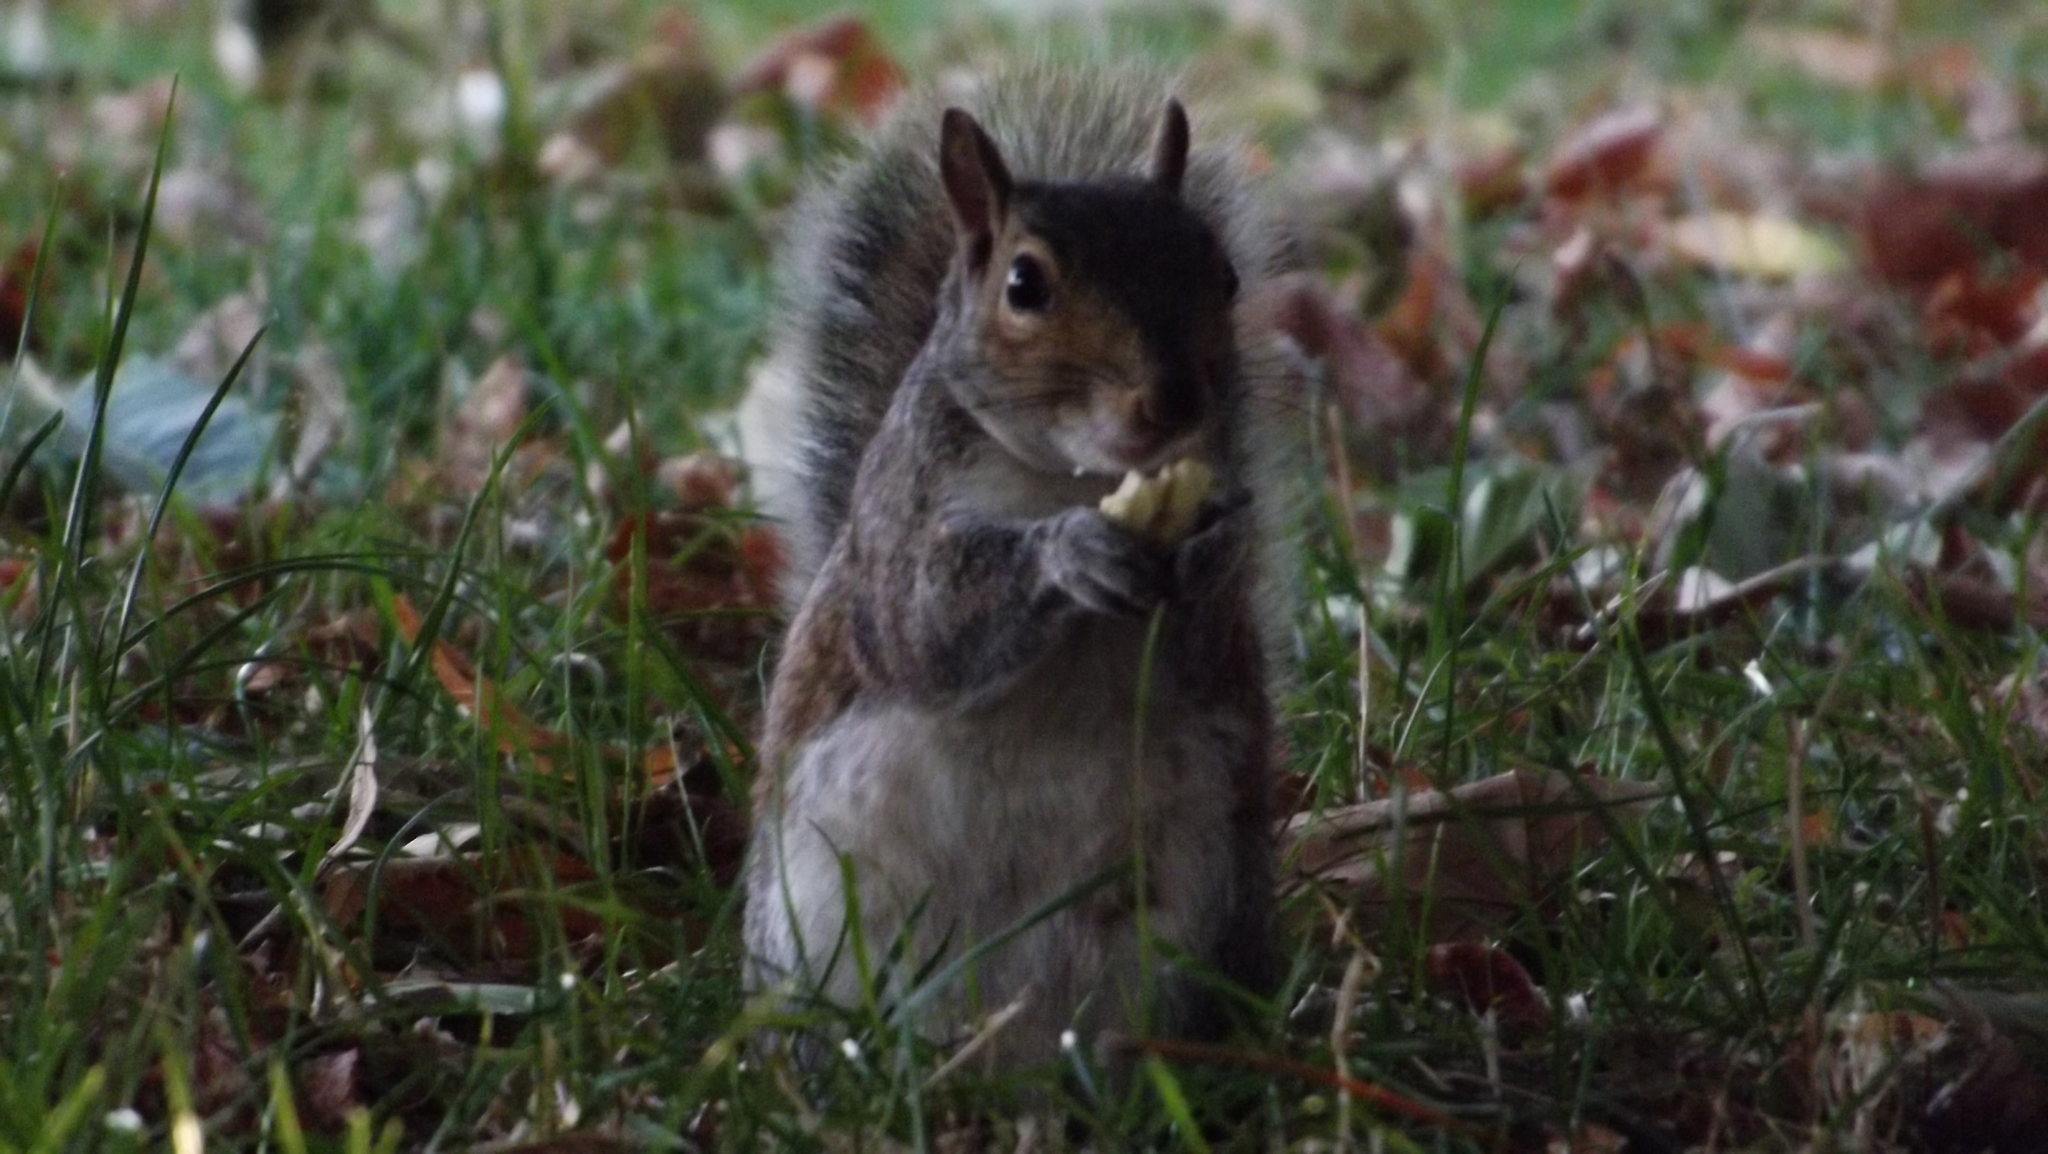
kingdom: Animalia
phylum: Chordata
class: Mammalia
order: Rodentia
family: Sciuridae
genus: Sciurus
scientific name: Sciurus carolinensis
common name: Eastern gray squirrel
